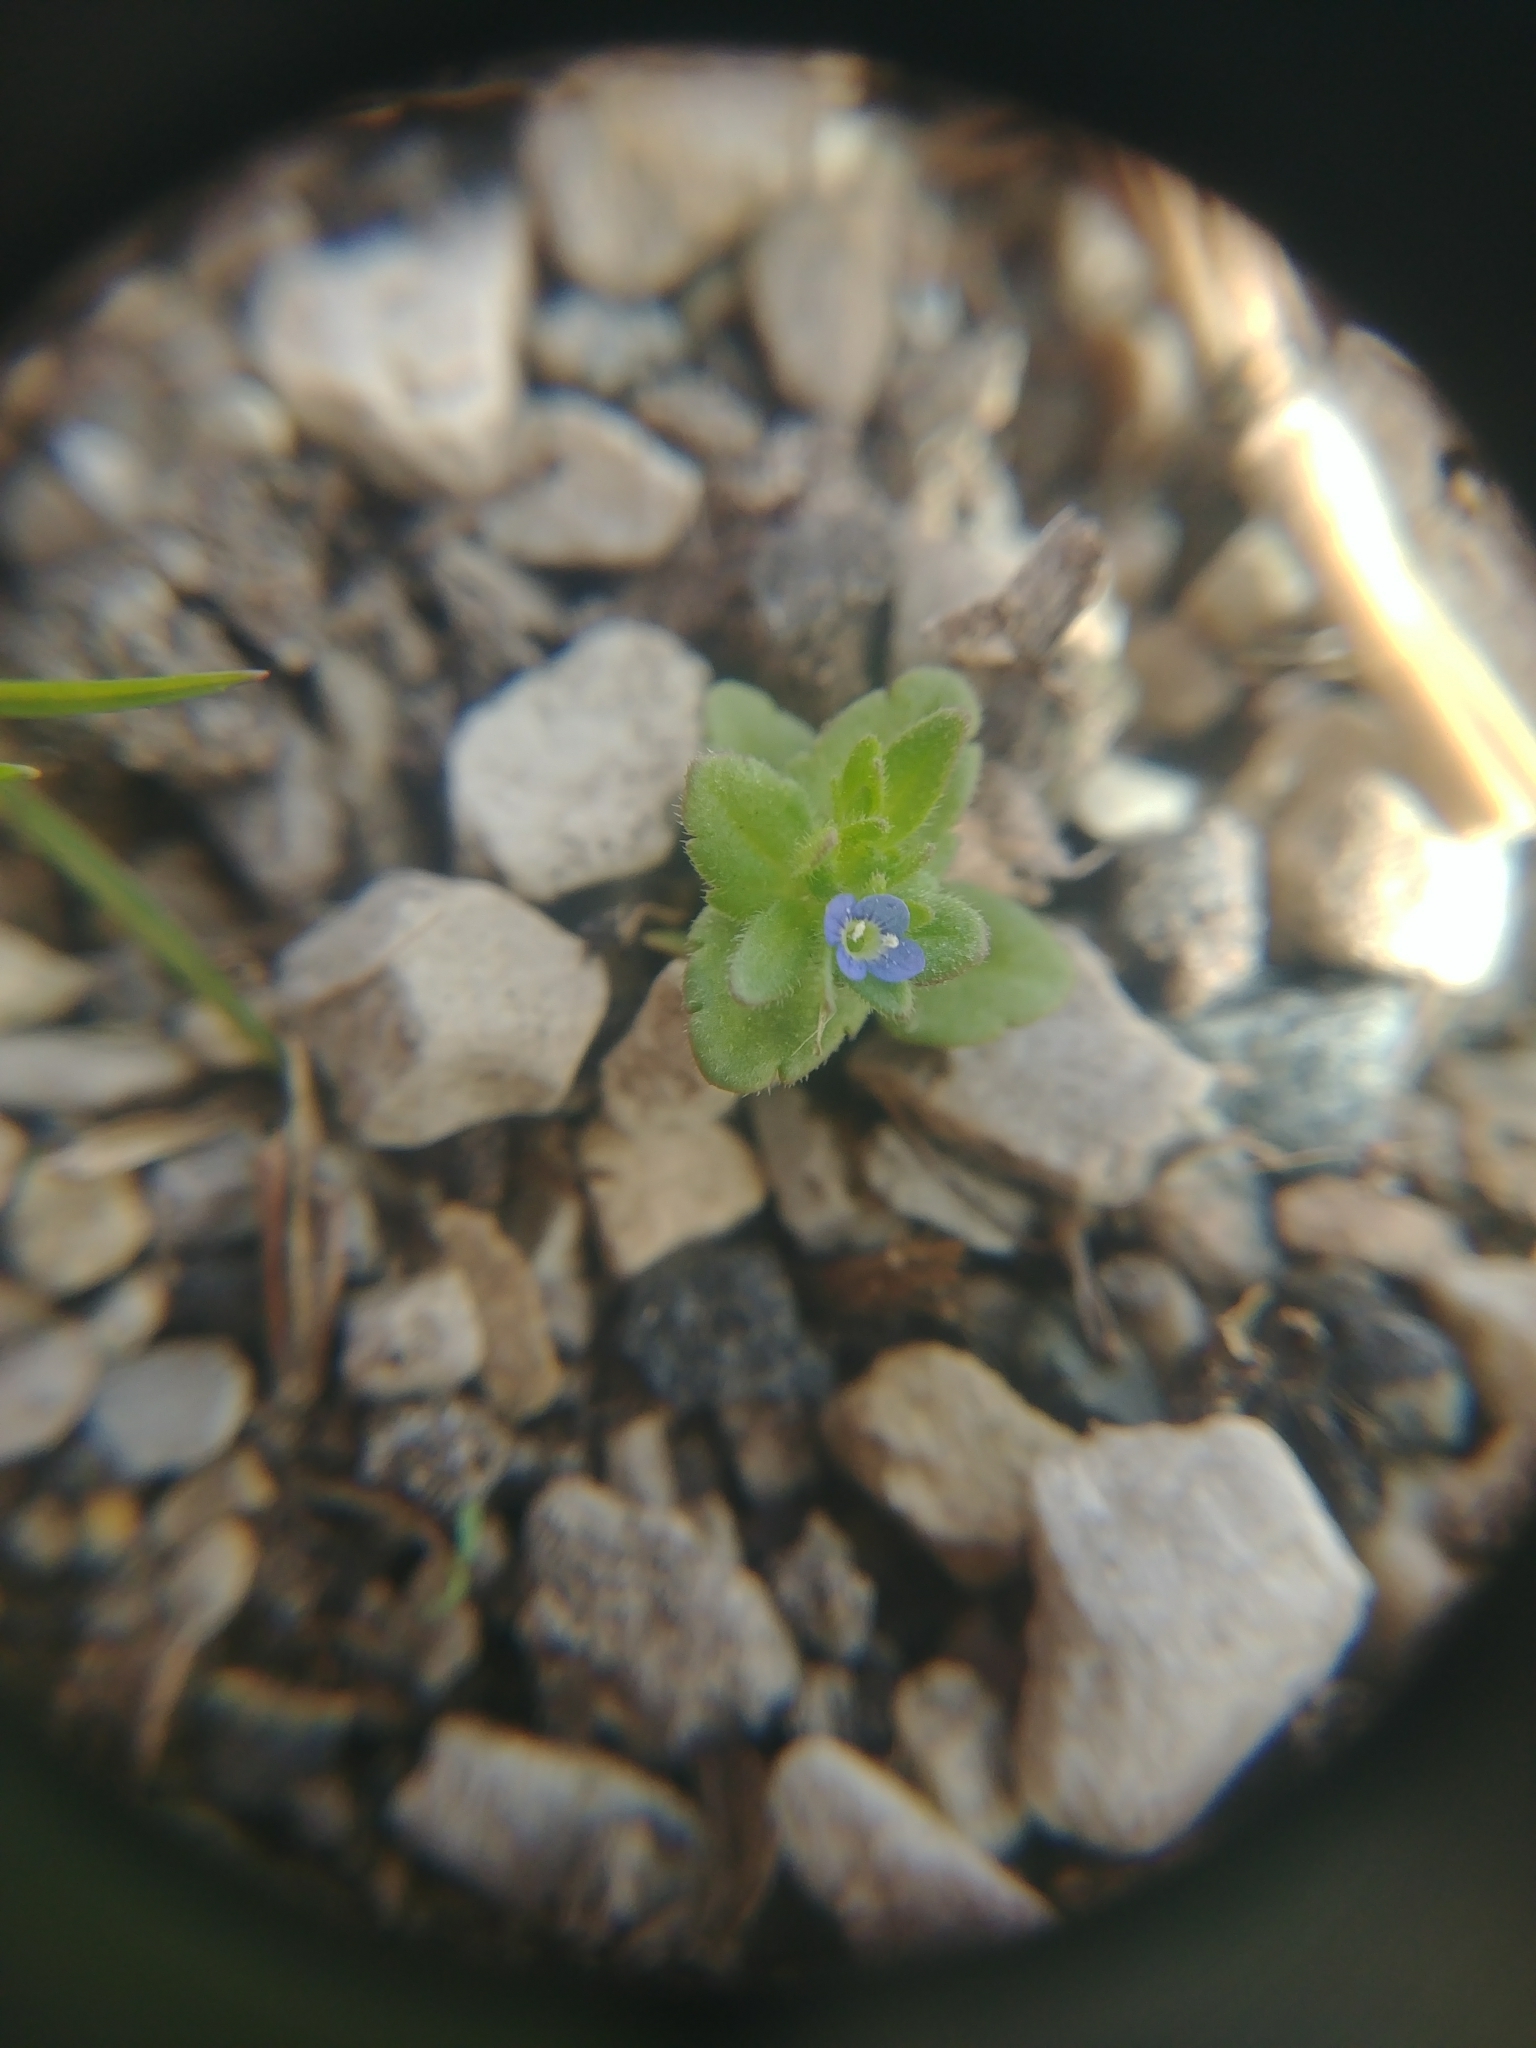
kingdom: Plantae
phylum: Tracheophyta
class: Magnoliopsida
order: Lamiales
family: Plantaginaceae
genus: Veronica
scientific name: Veronica arvensis
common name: Corn speedwell
